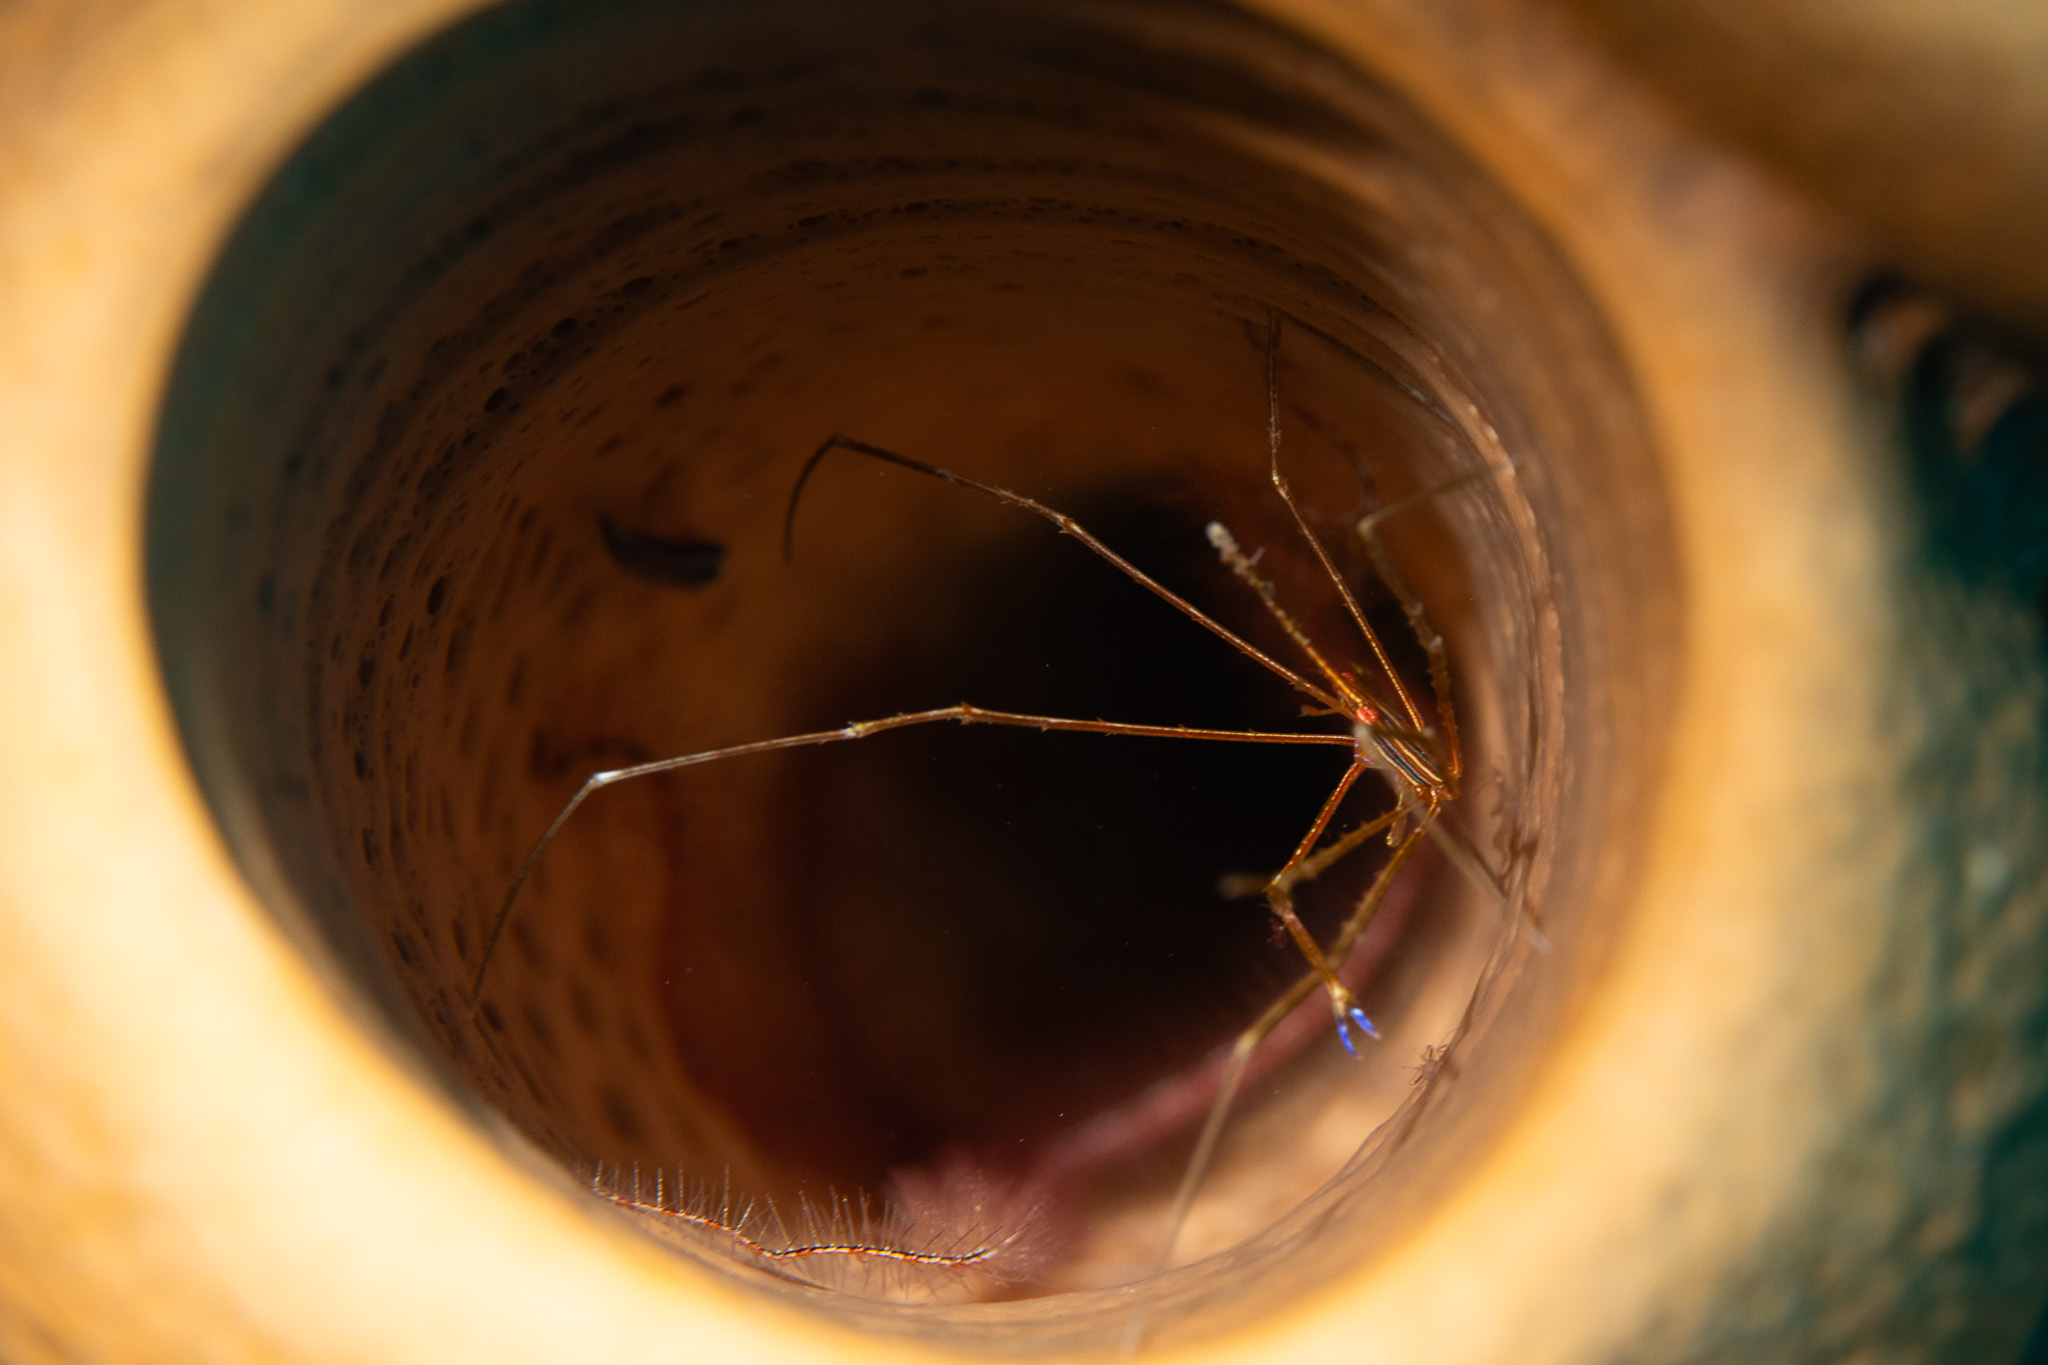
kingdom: Animalia
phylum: Arthropoda
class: Malacostraca
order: Decapoda
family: Inachoididae
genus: Stenorhynchus
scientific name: Stenorhynchus seticornis
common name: Arrow crab
